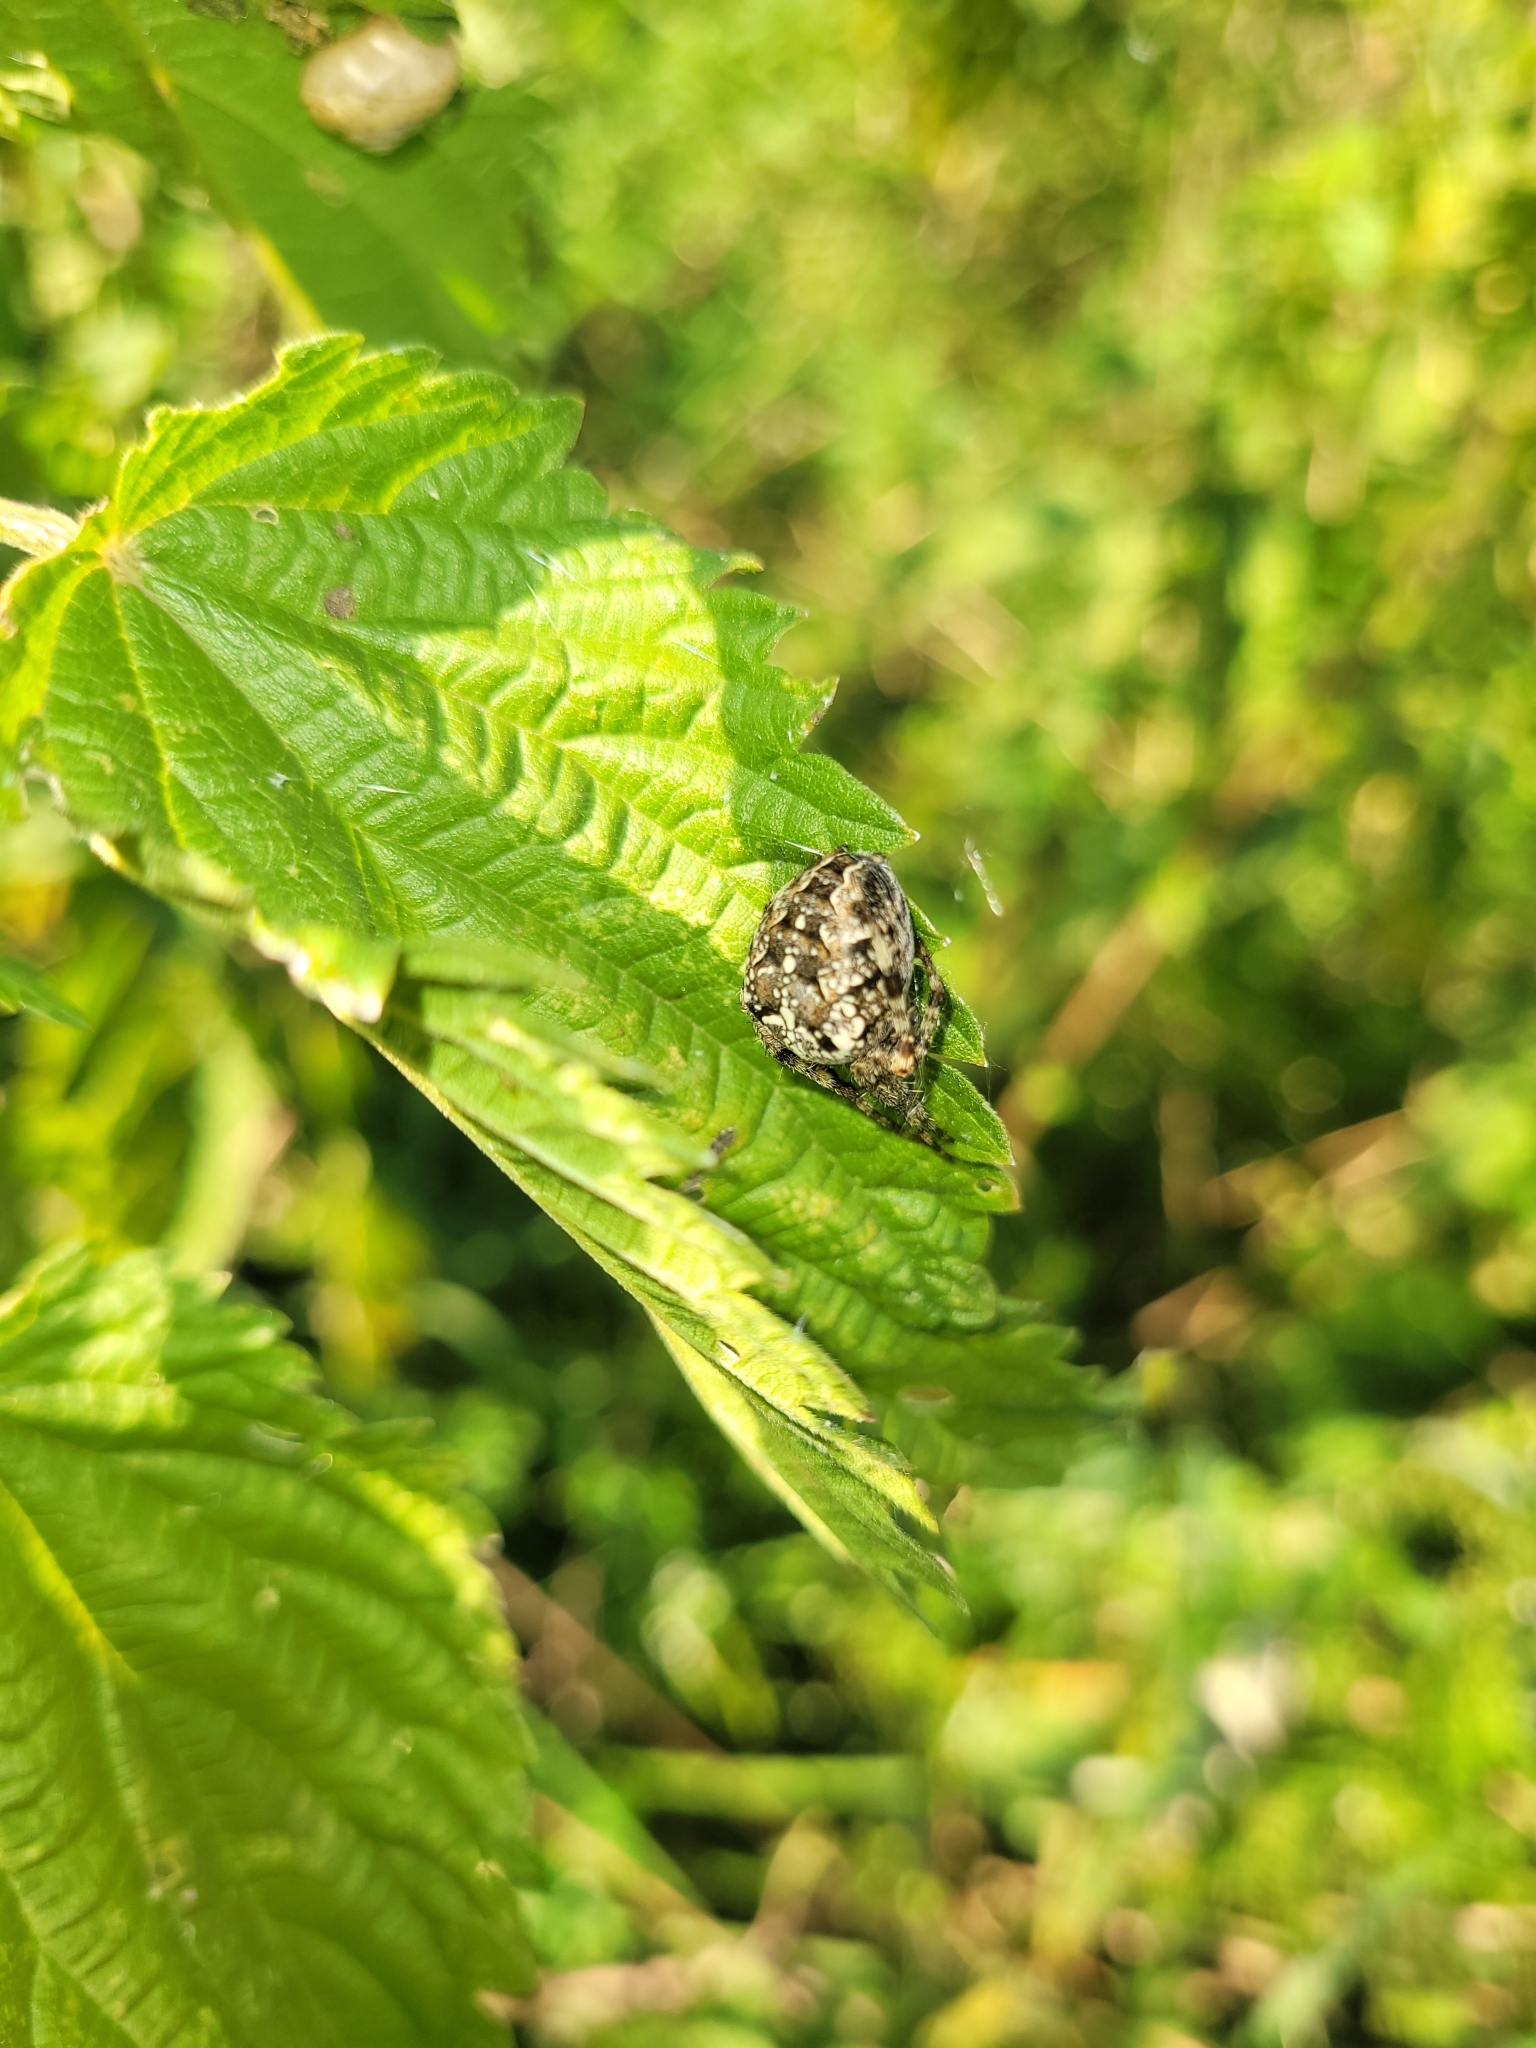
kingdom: Animalia
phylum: Arthropoda
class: Arachnida
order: Araneae
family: Araneidae
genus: Araneus
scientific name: Araneus diadematus
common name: Cross orbweaver
